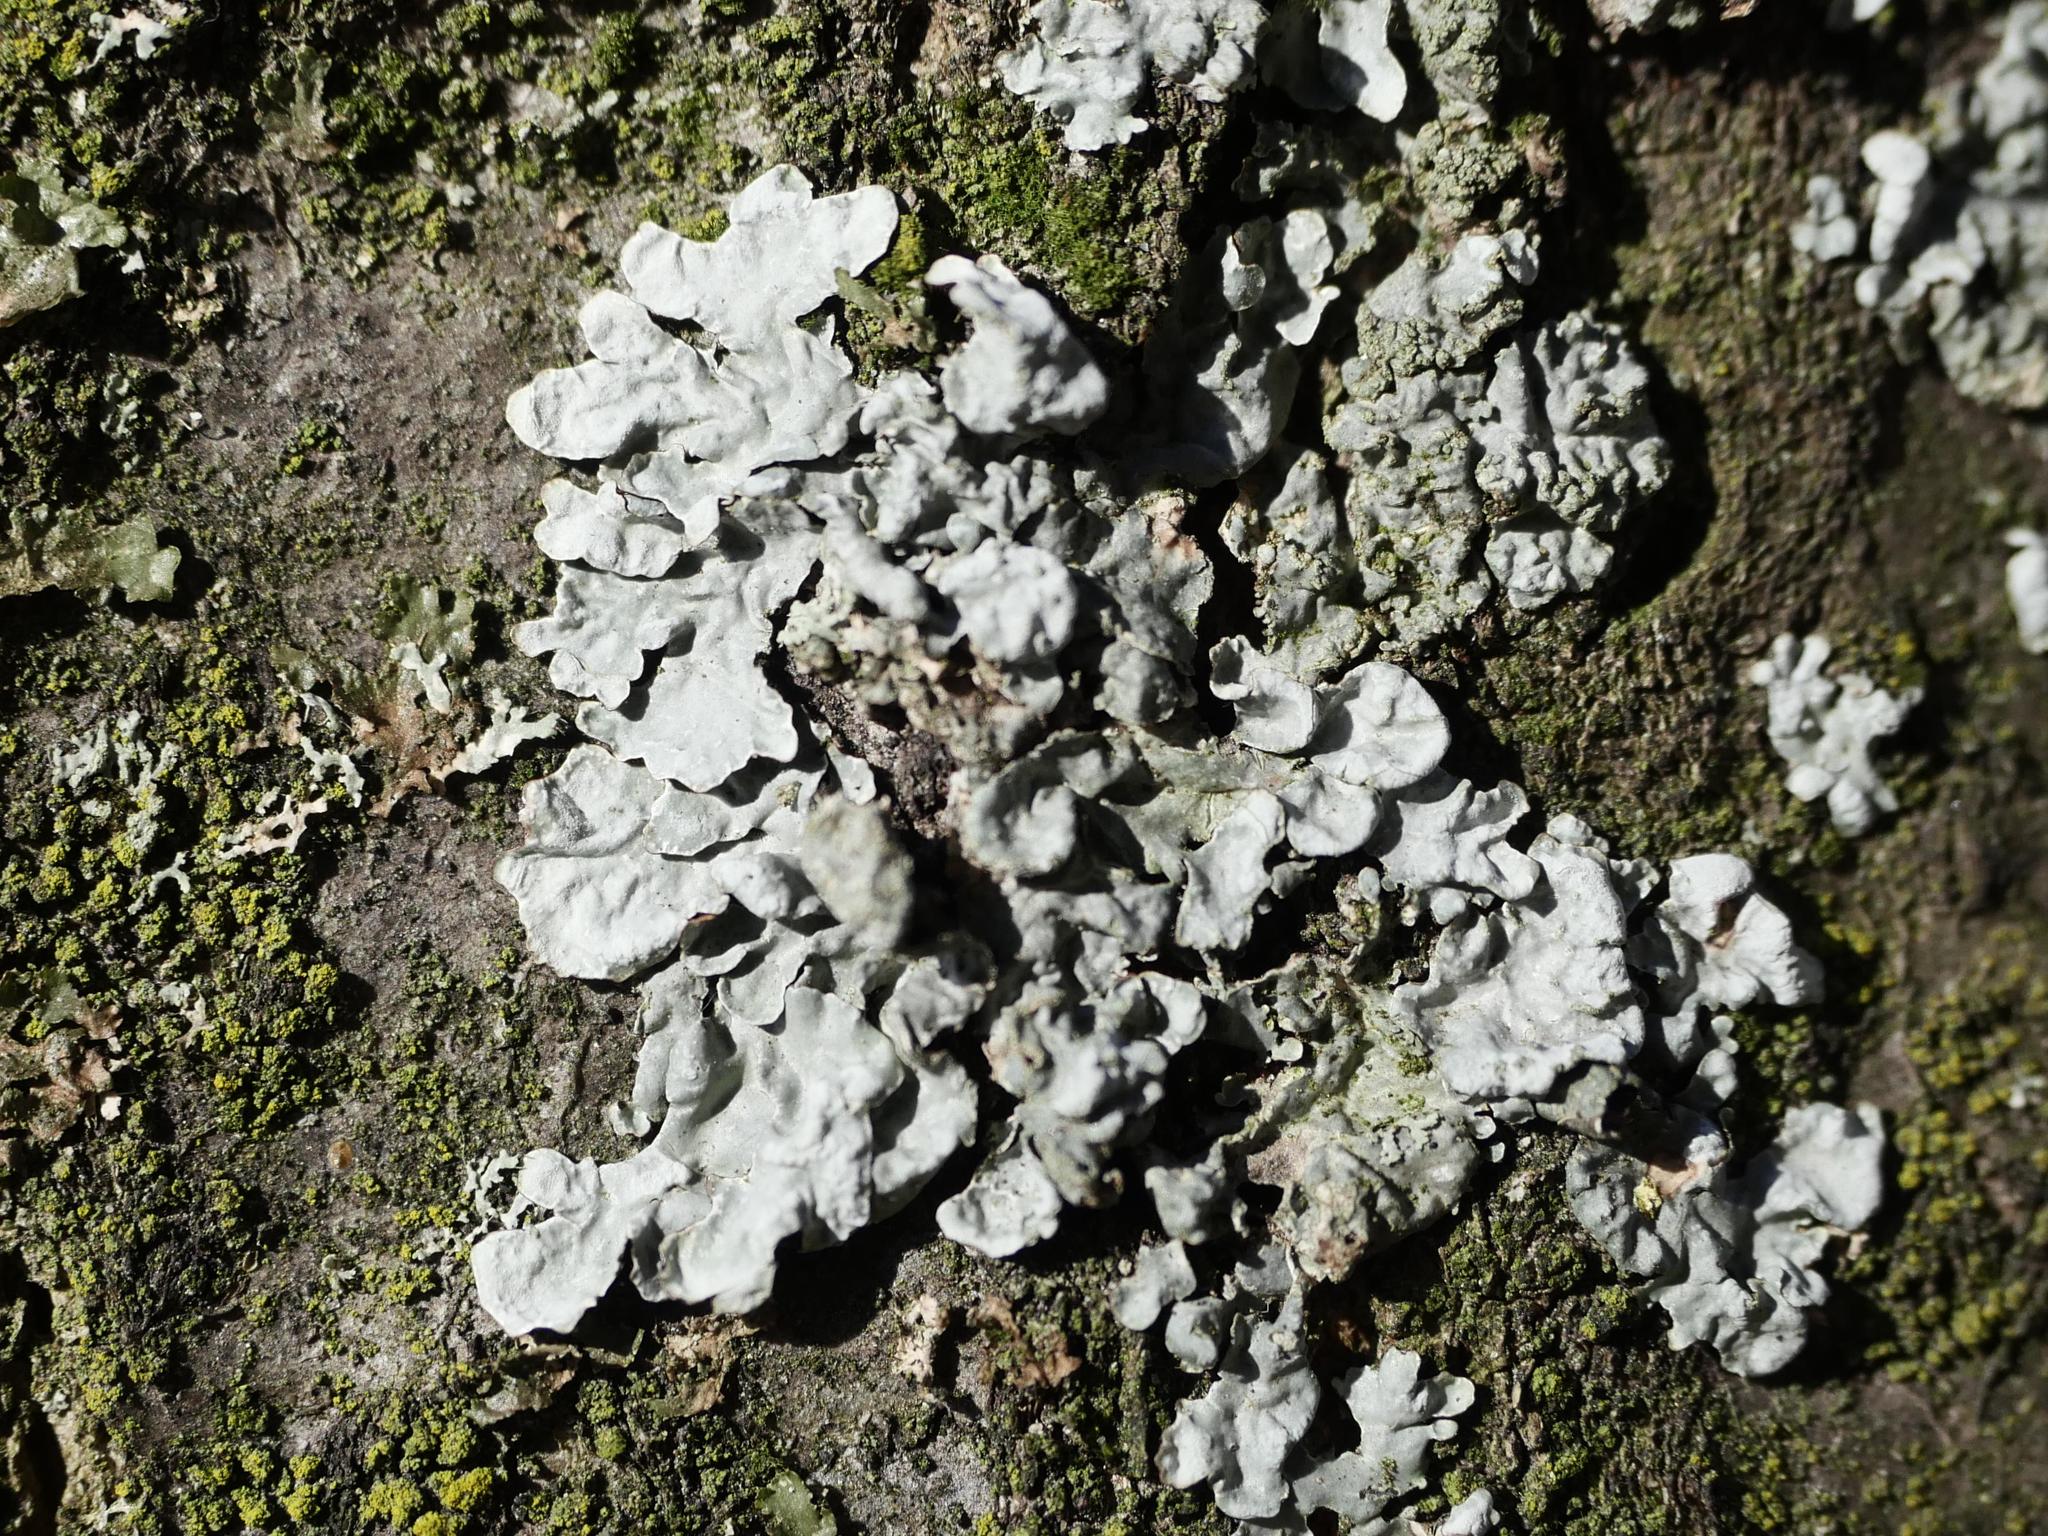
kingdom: Fungi
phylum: Ascomycota
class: Lecanoromycetes
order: Lecanorales
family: Parmeliaceae
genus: Parmelia
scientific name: Parmelia sulcata
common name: Netted shield lichen
